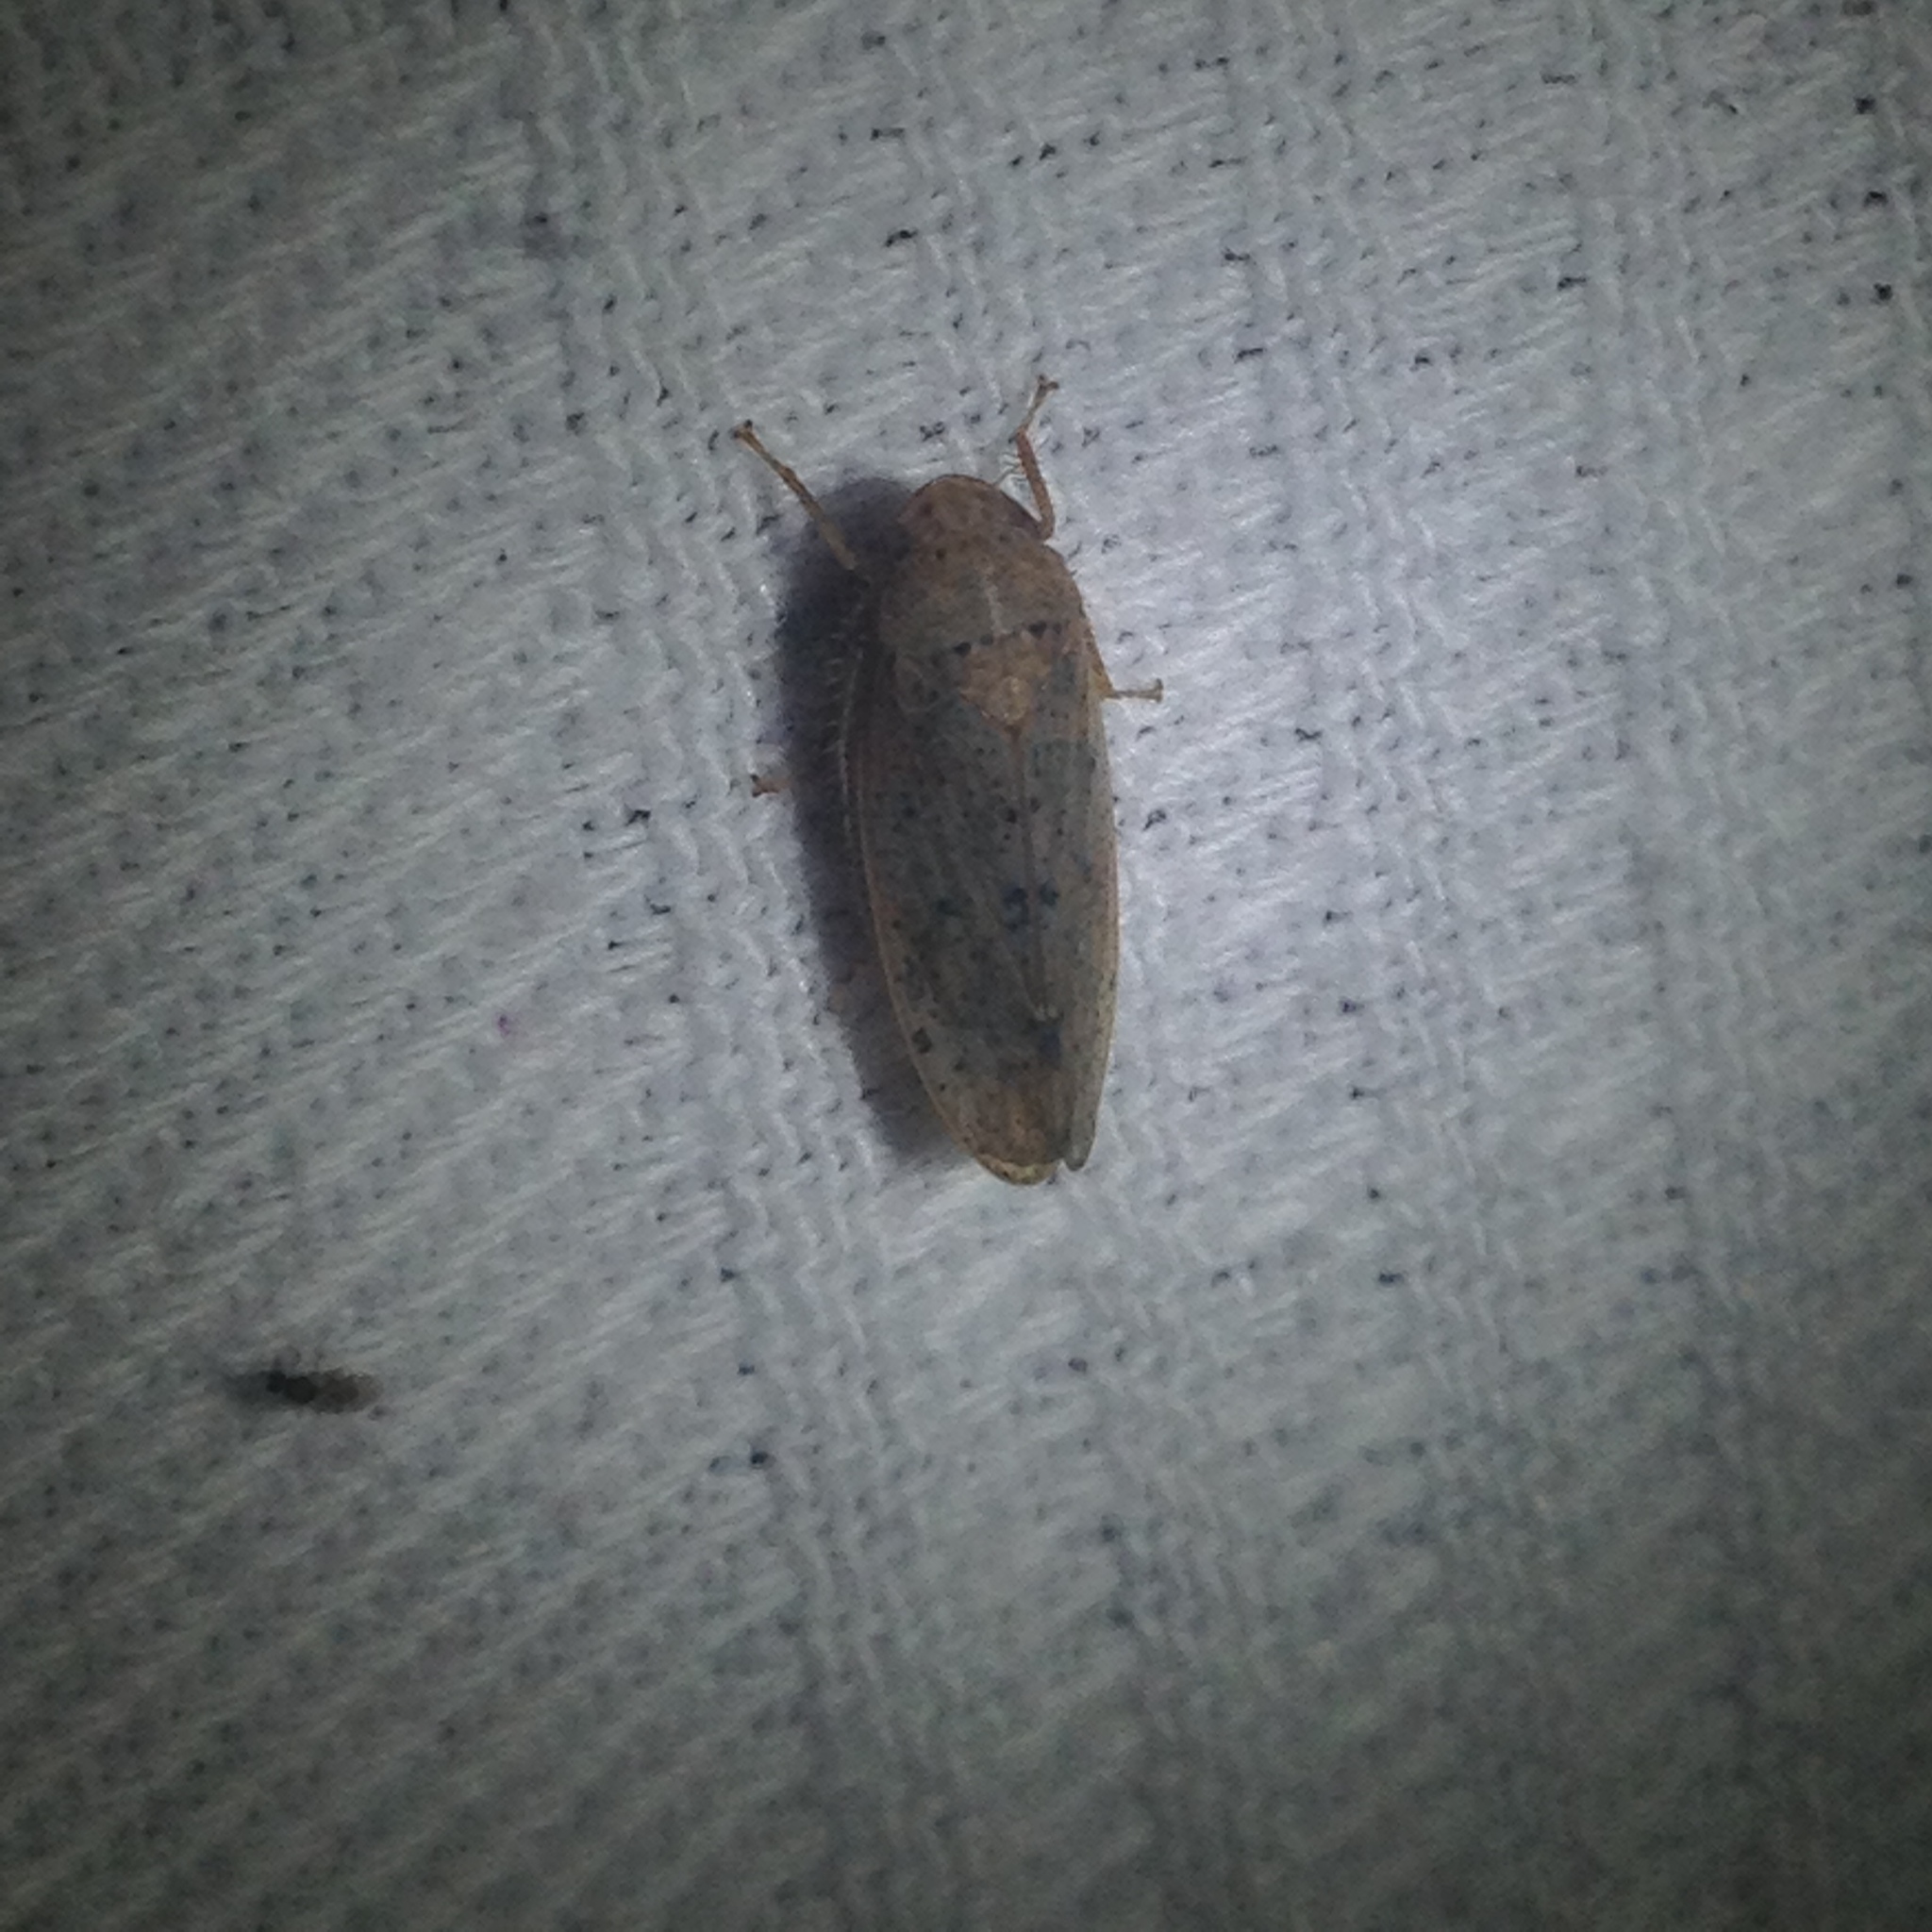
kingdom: Animalia
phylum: Arthropoda
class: Insecta
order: Hemiptera
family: Cicadellidae
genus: Ponana
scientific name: Ponana puncticollis
